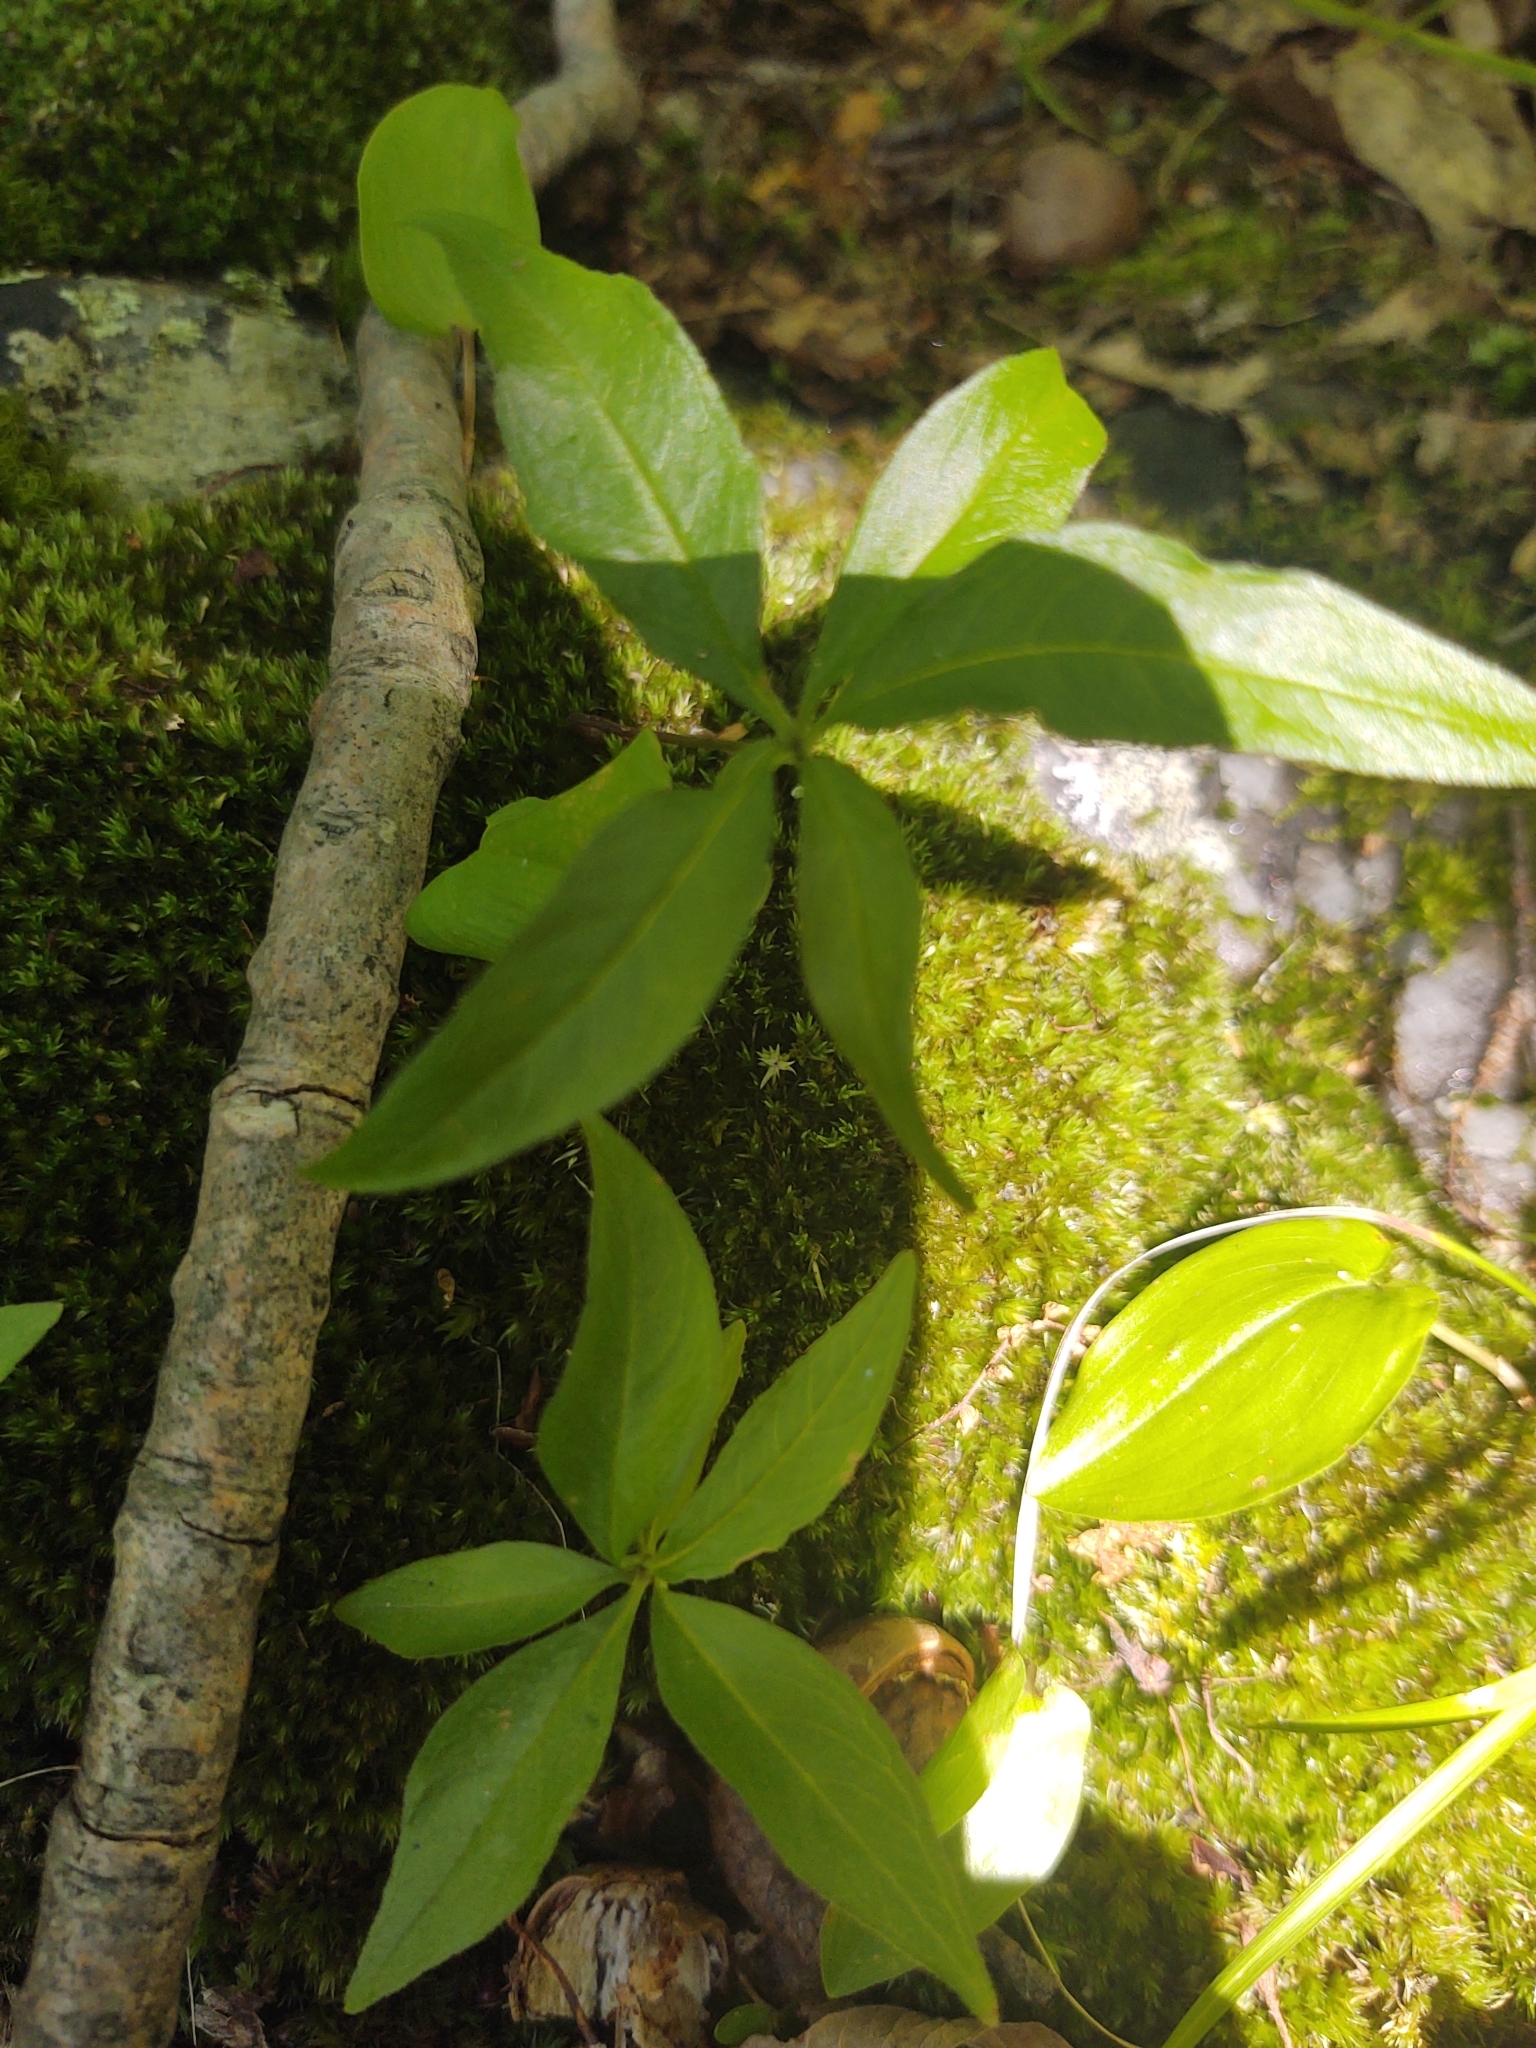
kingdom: Plantae
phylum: Tracheophyta
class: Magnoliopsida
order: Ericales
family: Primulaceae
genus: Lysimachia
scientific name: Lysimachia borealis
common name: American starflower
